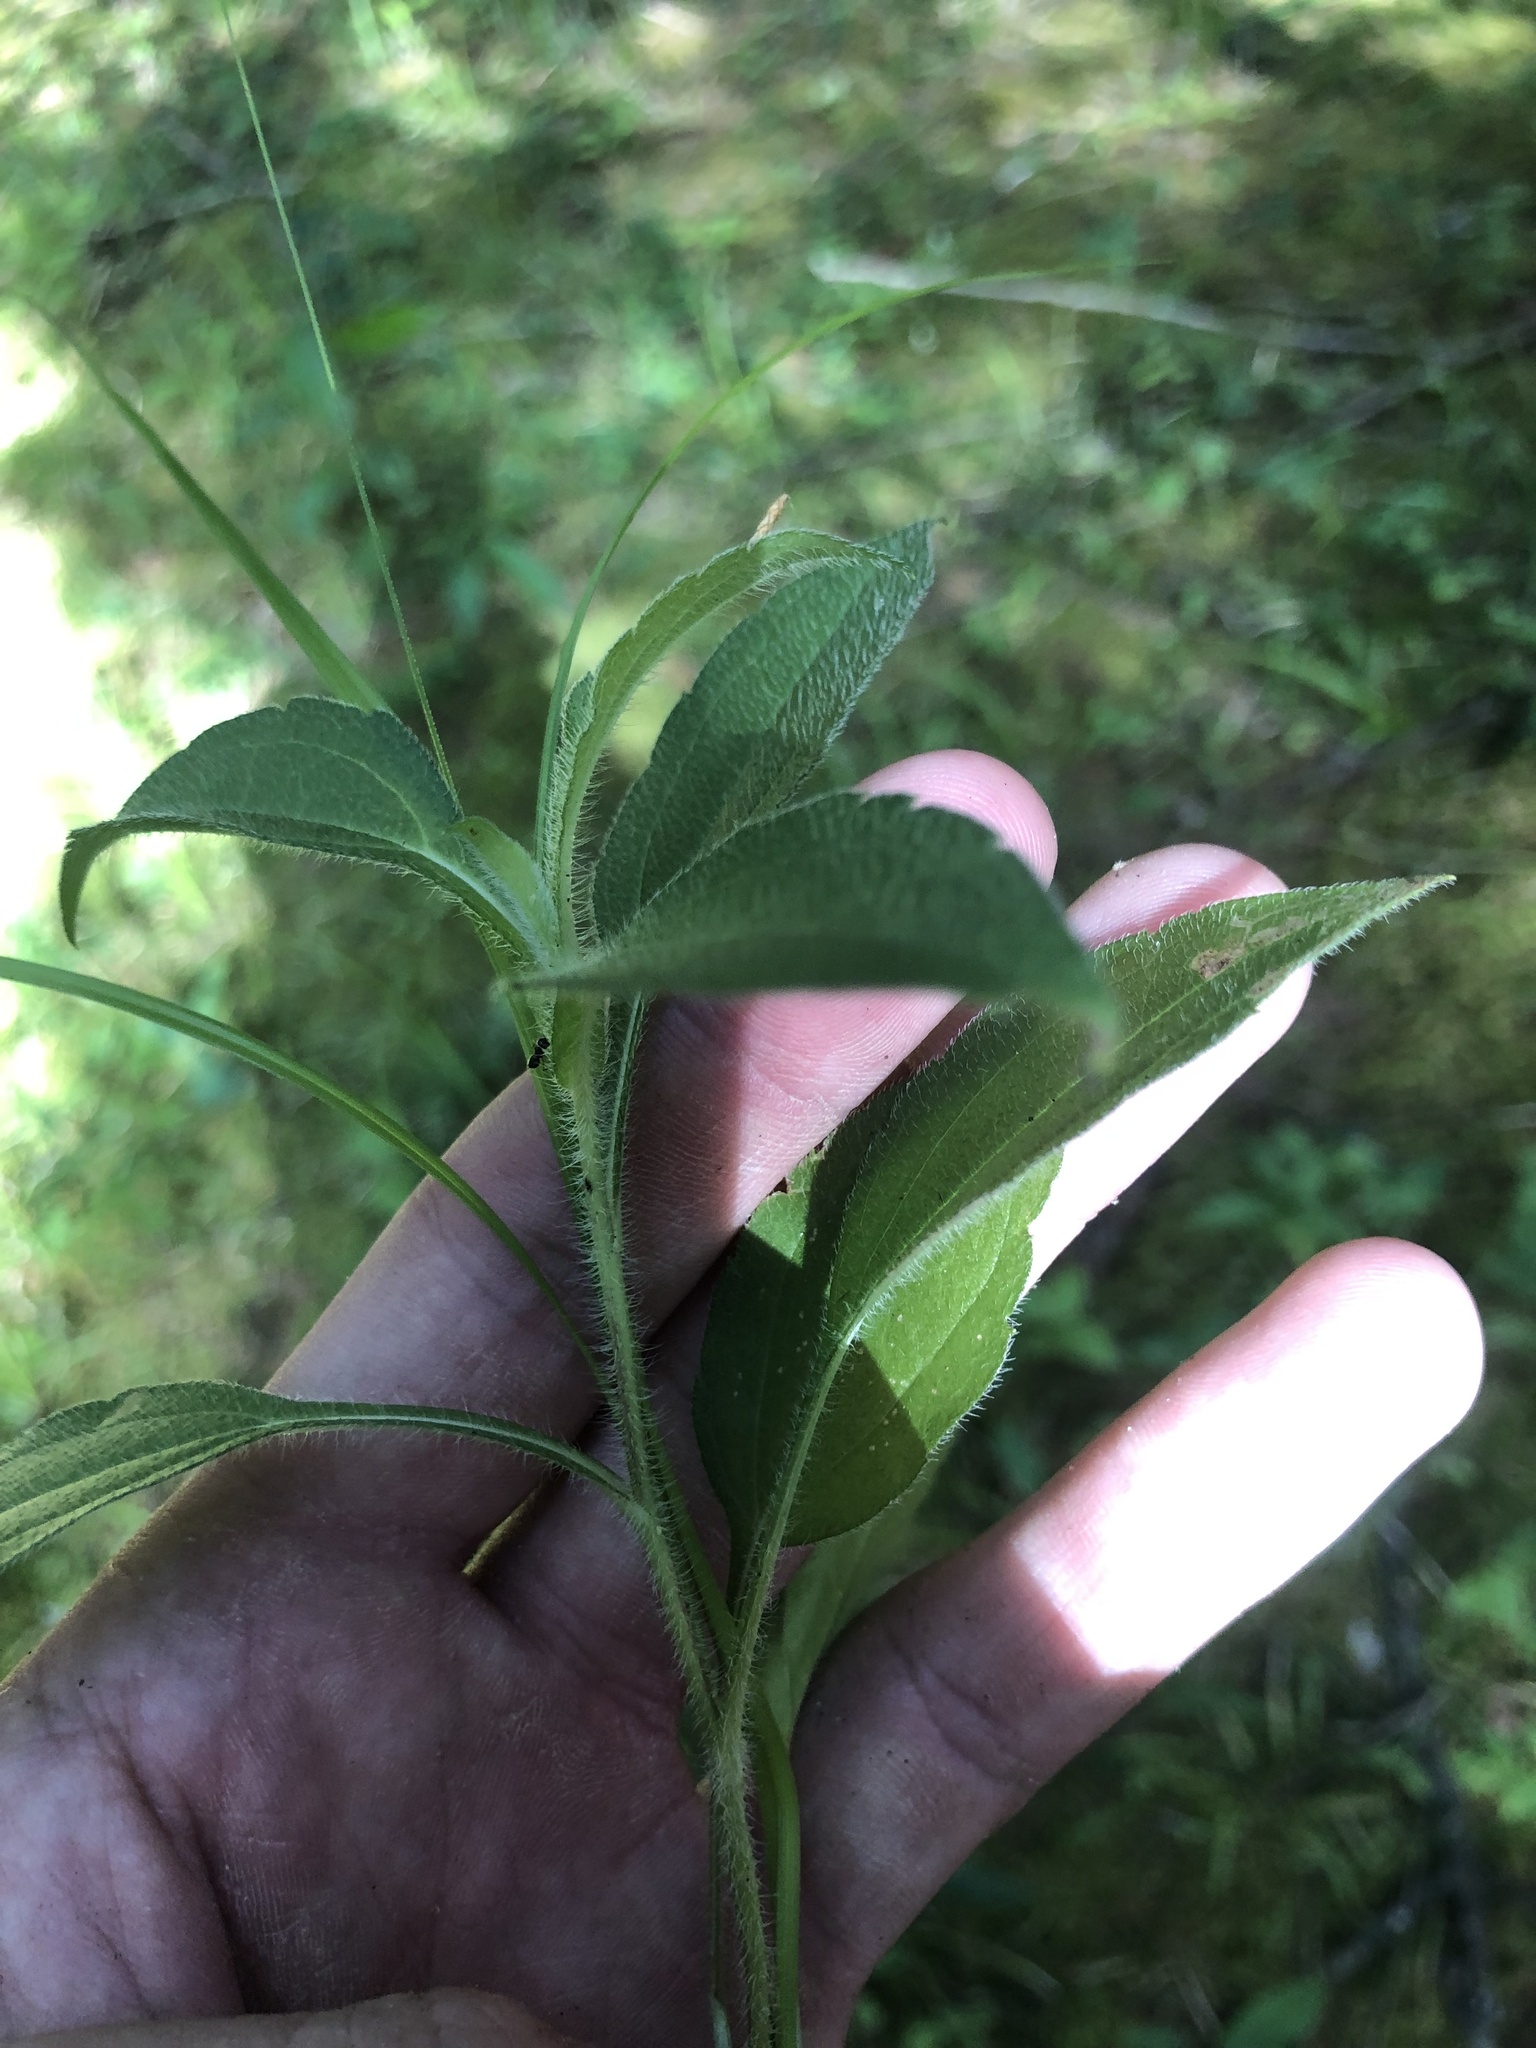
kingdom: Plantae
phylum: Tracheophyta
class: Magnoliopsida
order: Asterales
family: Asteraceae
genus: Rudbeckia
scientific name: Rudbeckia terranigrae
